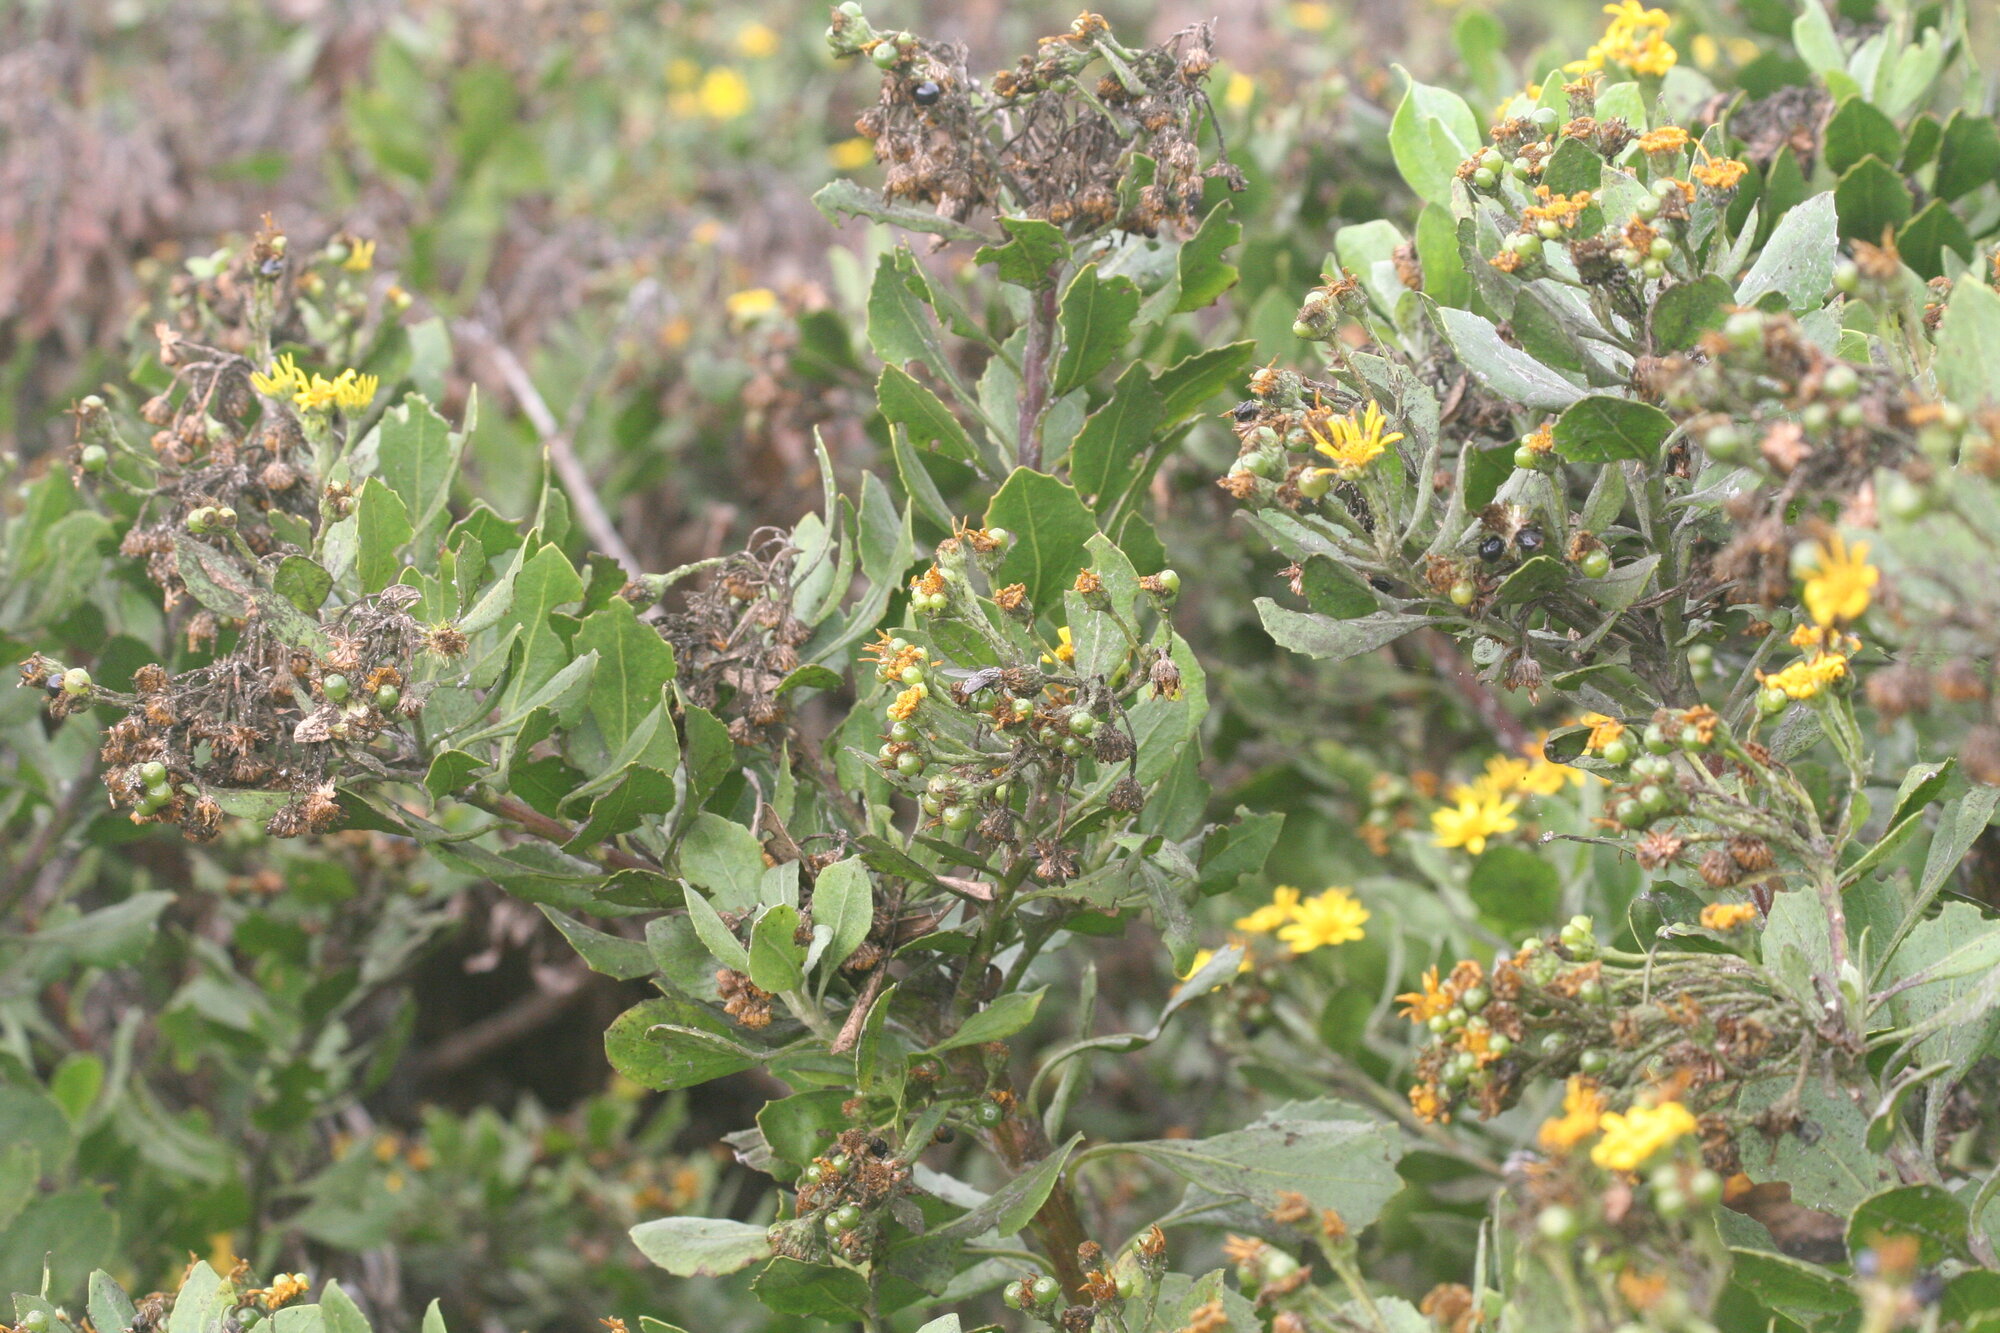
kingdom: Plantae
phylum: Tracheophyta
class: Magnoliopsida
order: Asterales
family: Asteraceae
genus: Osteospermum
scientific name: Osteospermum moniliferum
